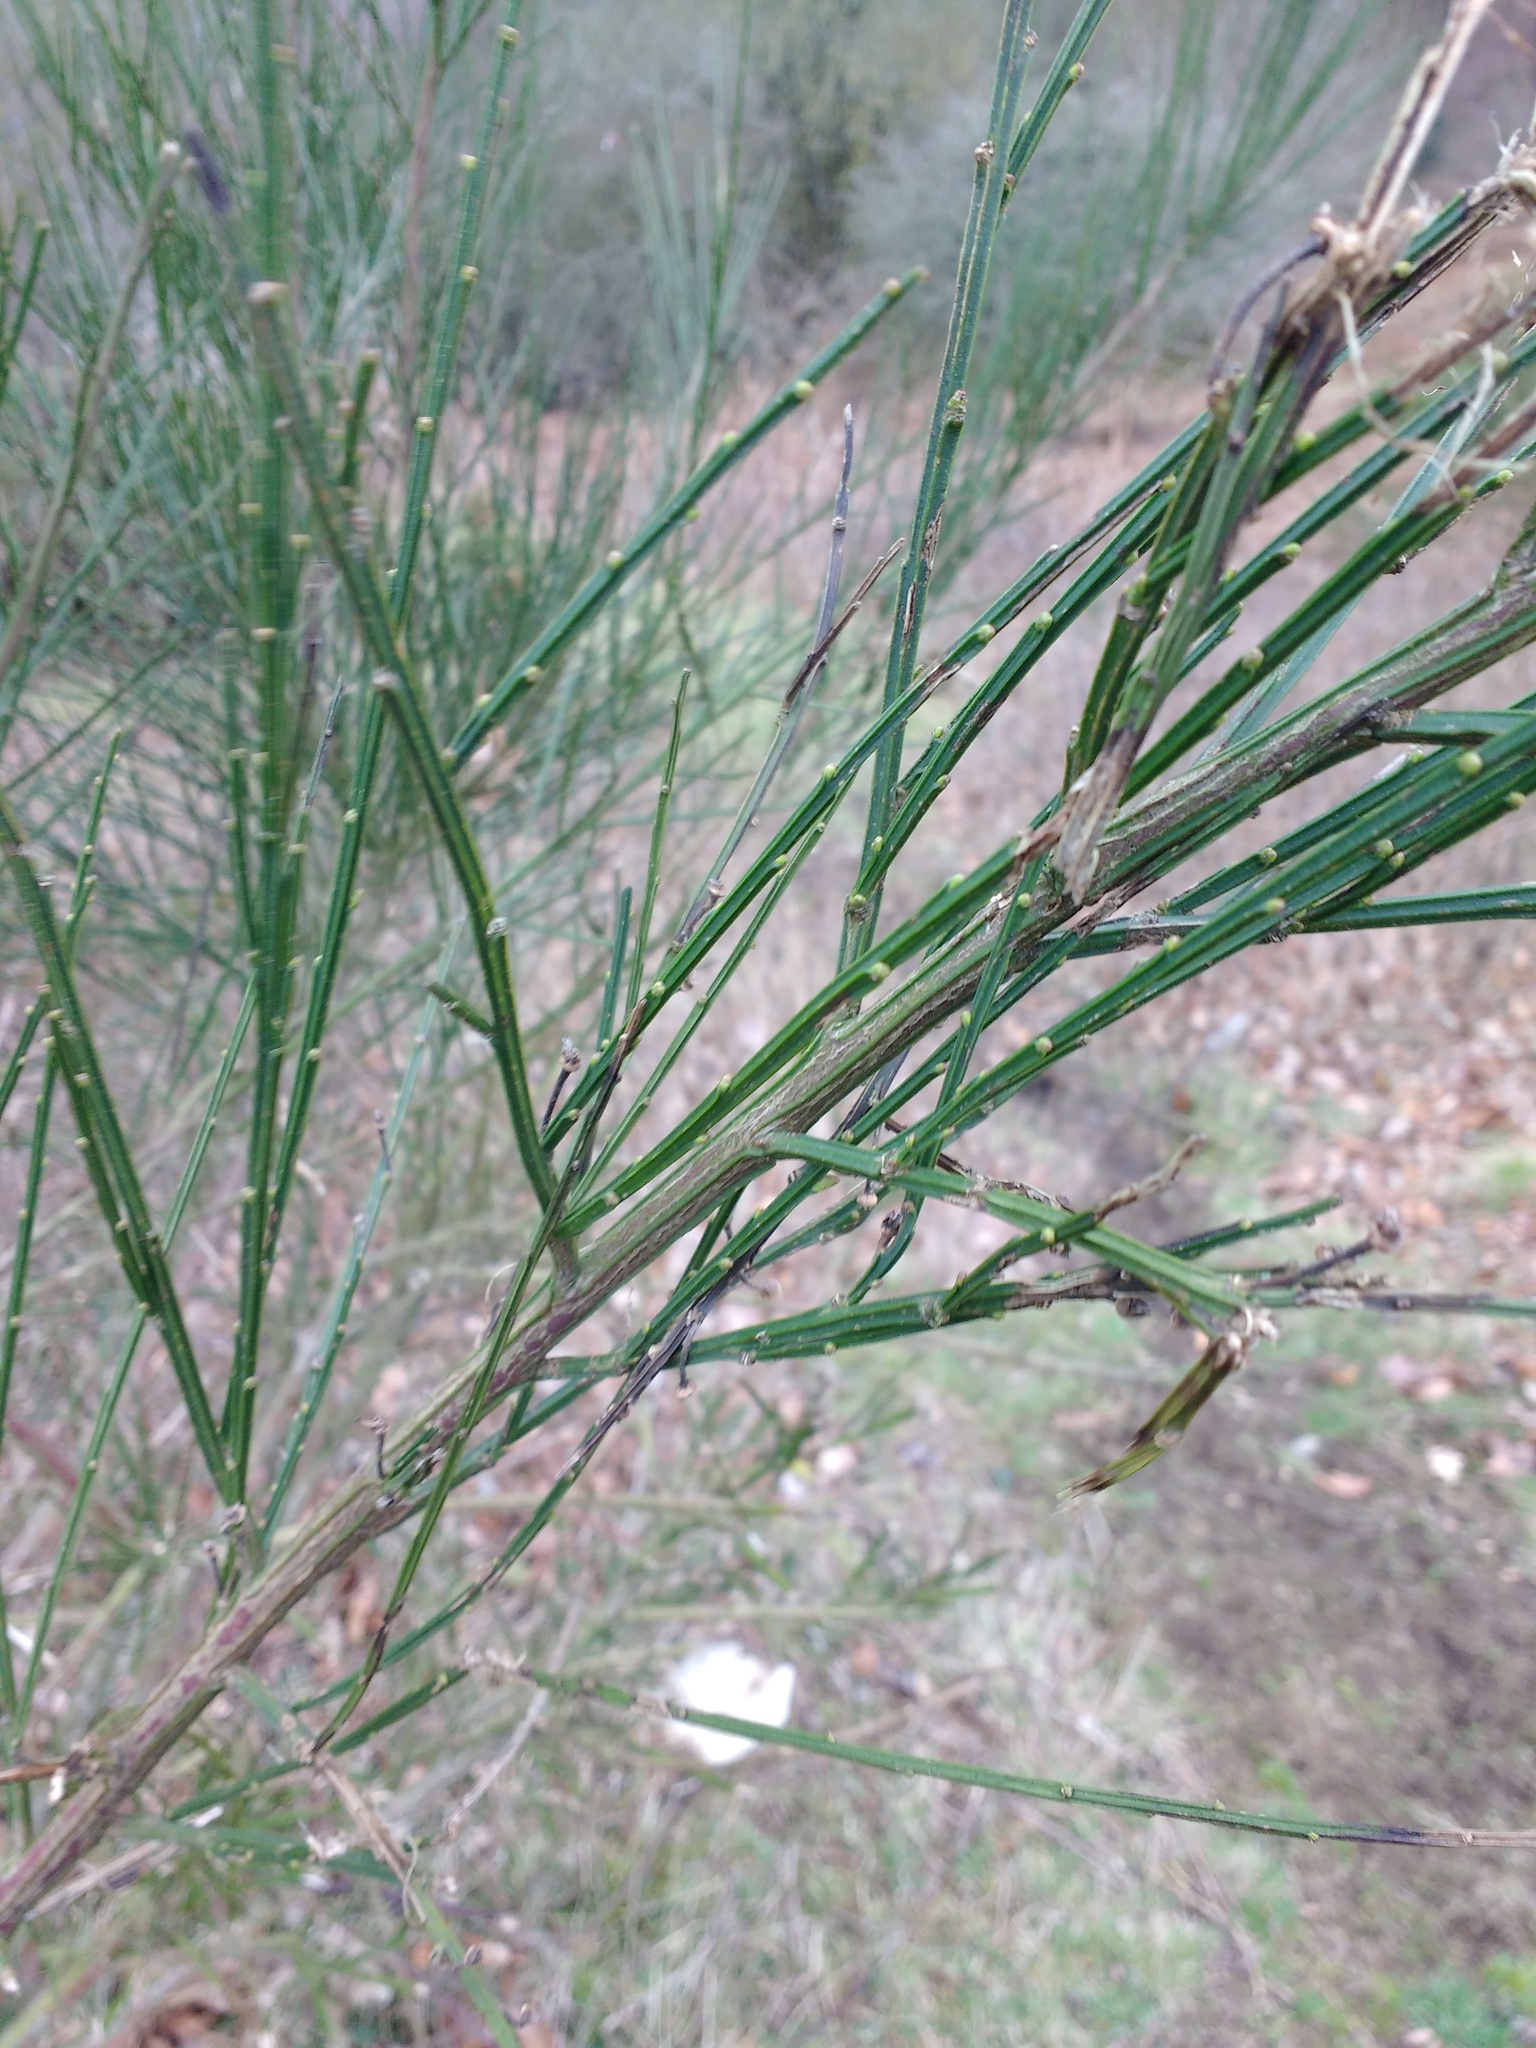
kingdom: Plantae
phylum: Tracheophyta
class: Magnoliopsida
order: Fabales
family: Fabaceae
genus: Cytisus
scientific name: Cytisus scoparius
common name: Scotch broom
